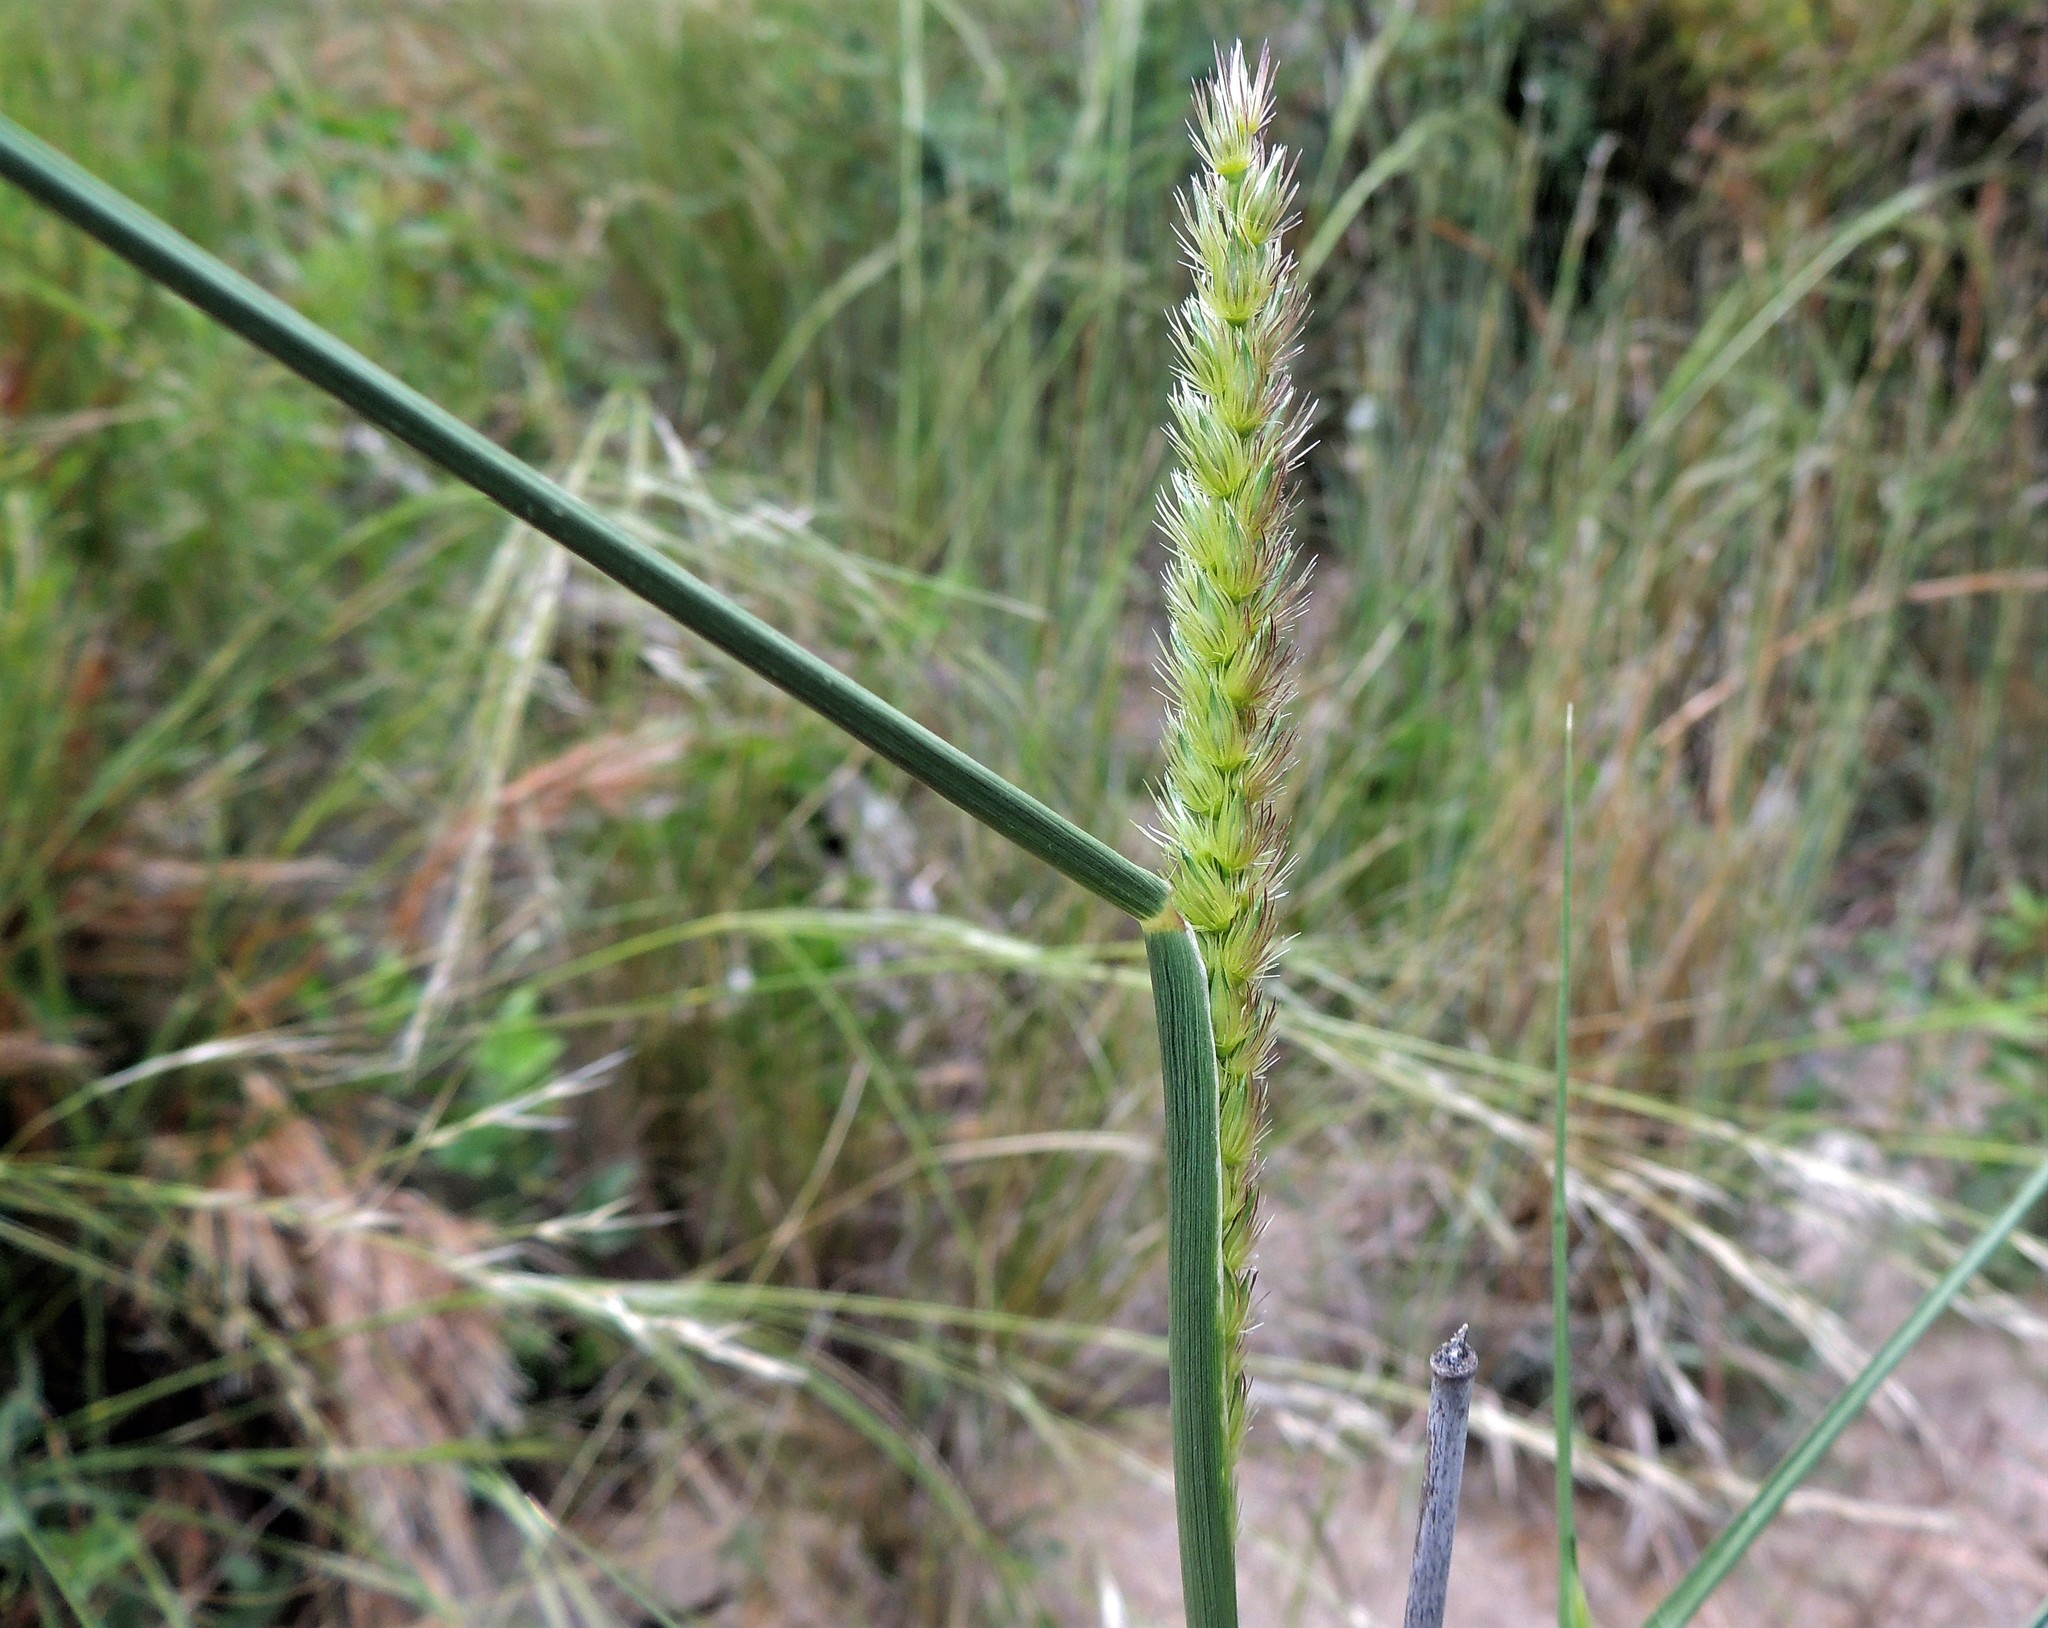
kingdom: Plantae
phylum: Tracheophyta
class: Liliopsida
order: Poales
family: Poaceae
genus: Setaria
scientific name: Setaria parviflora
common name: Knotroot bristle-grass
